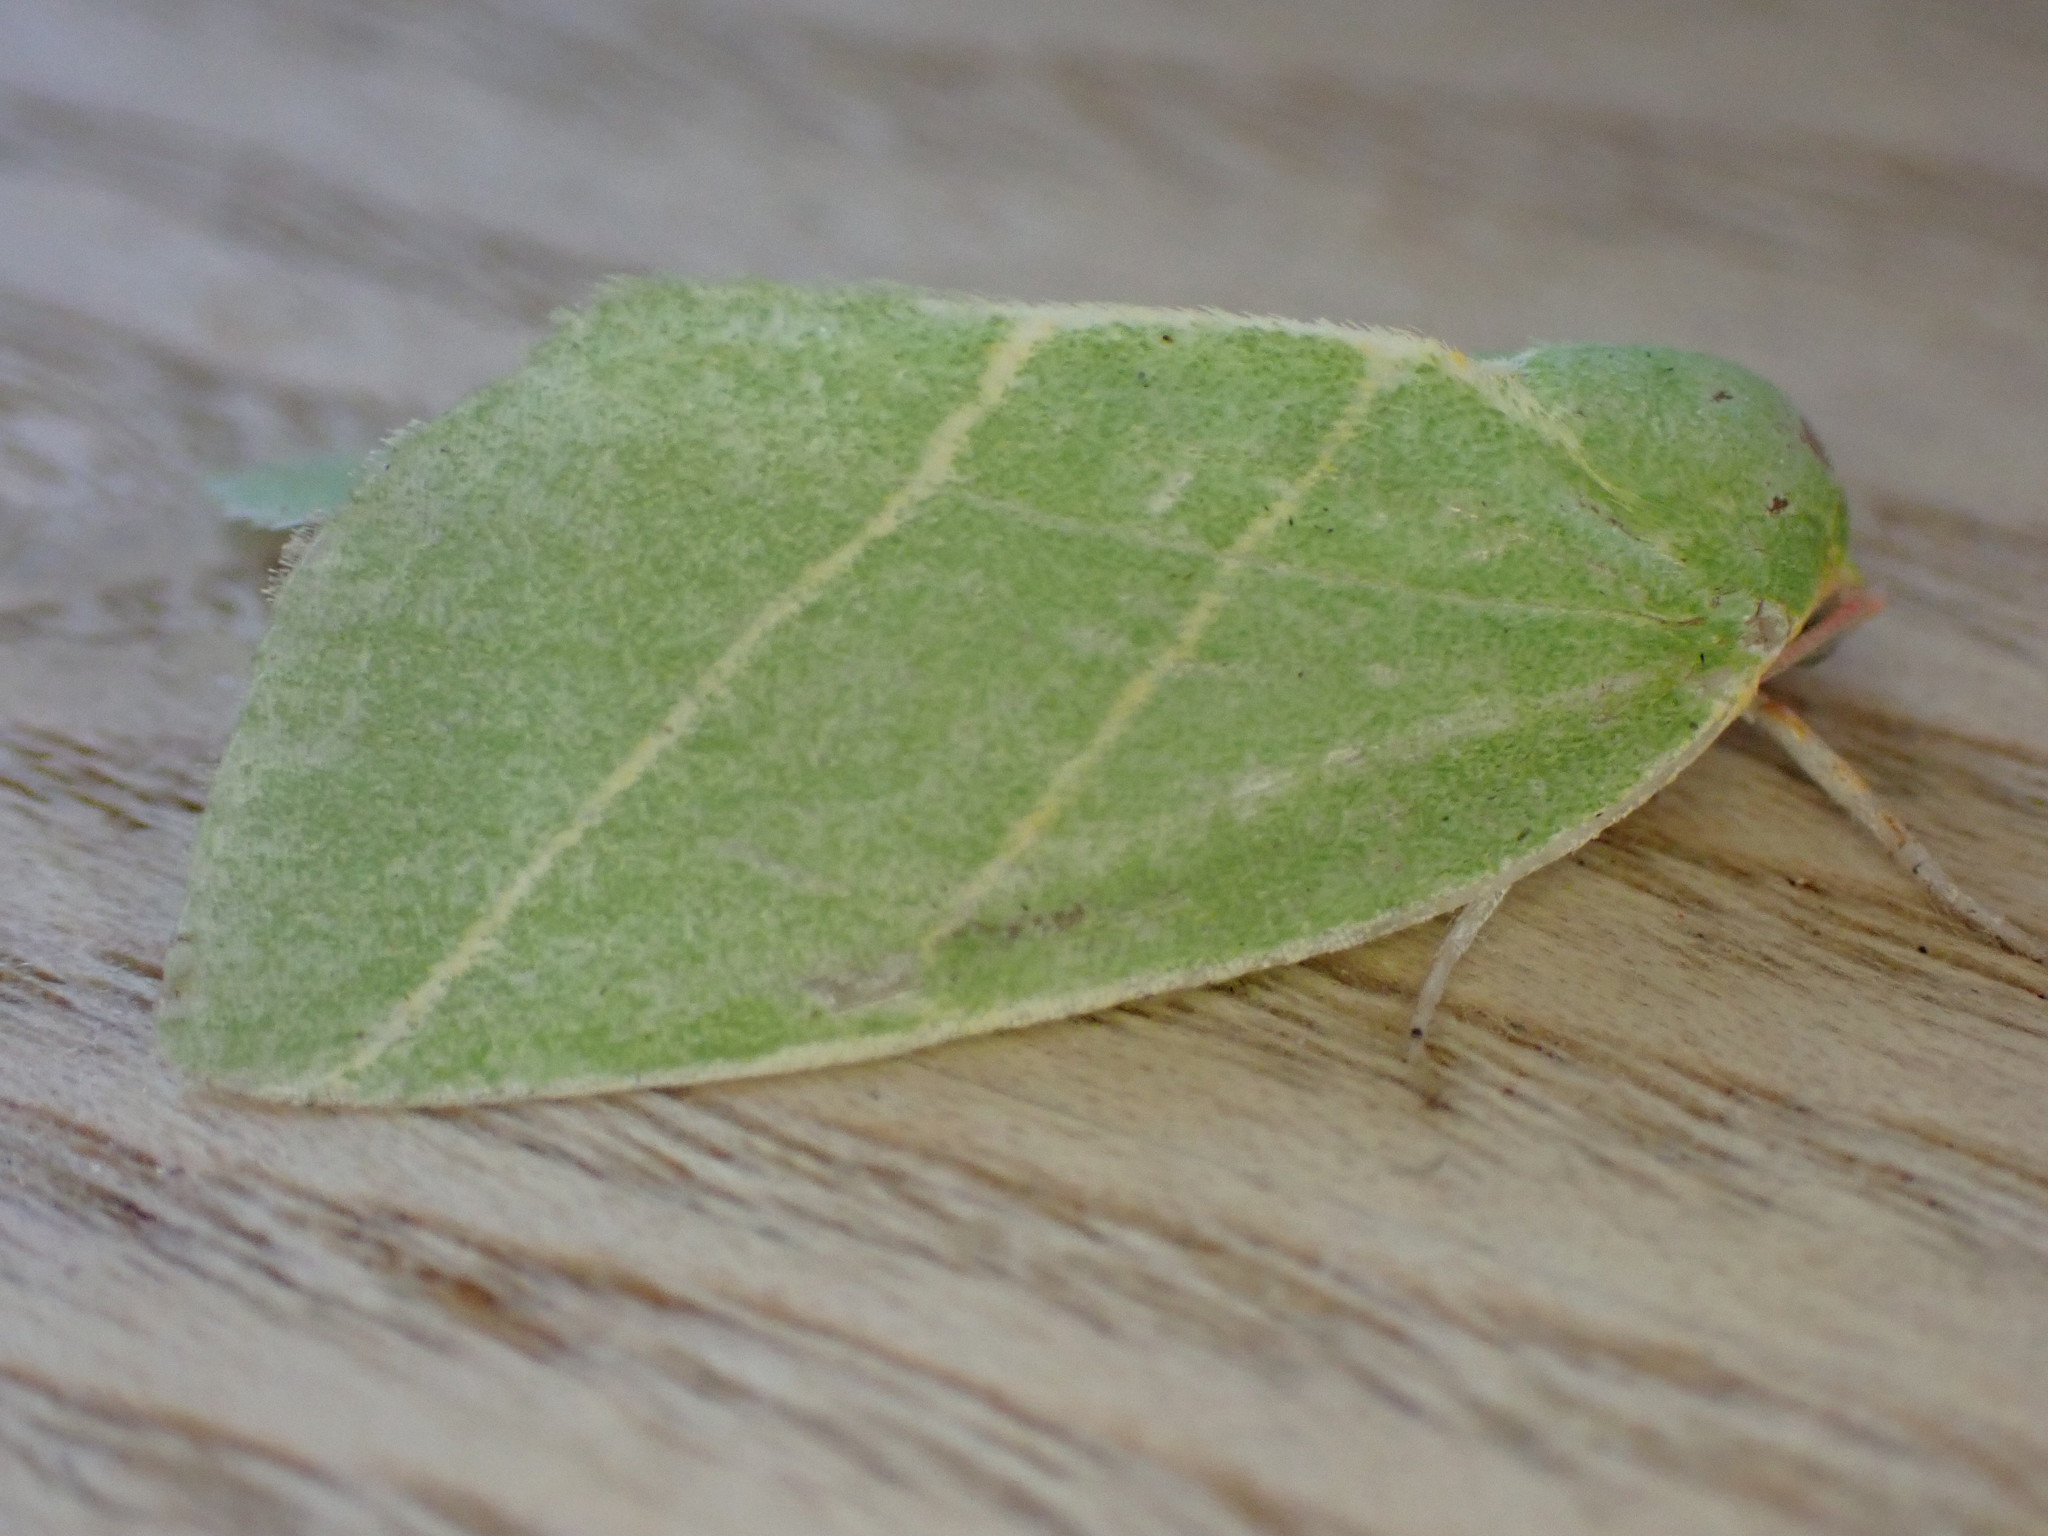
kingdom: Animalia
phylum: Arthropoda
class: Insecta
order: Lepidoptera
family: Nolidae
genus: Bena
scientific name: Bena bicolorana
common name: Scarce silver-lines
